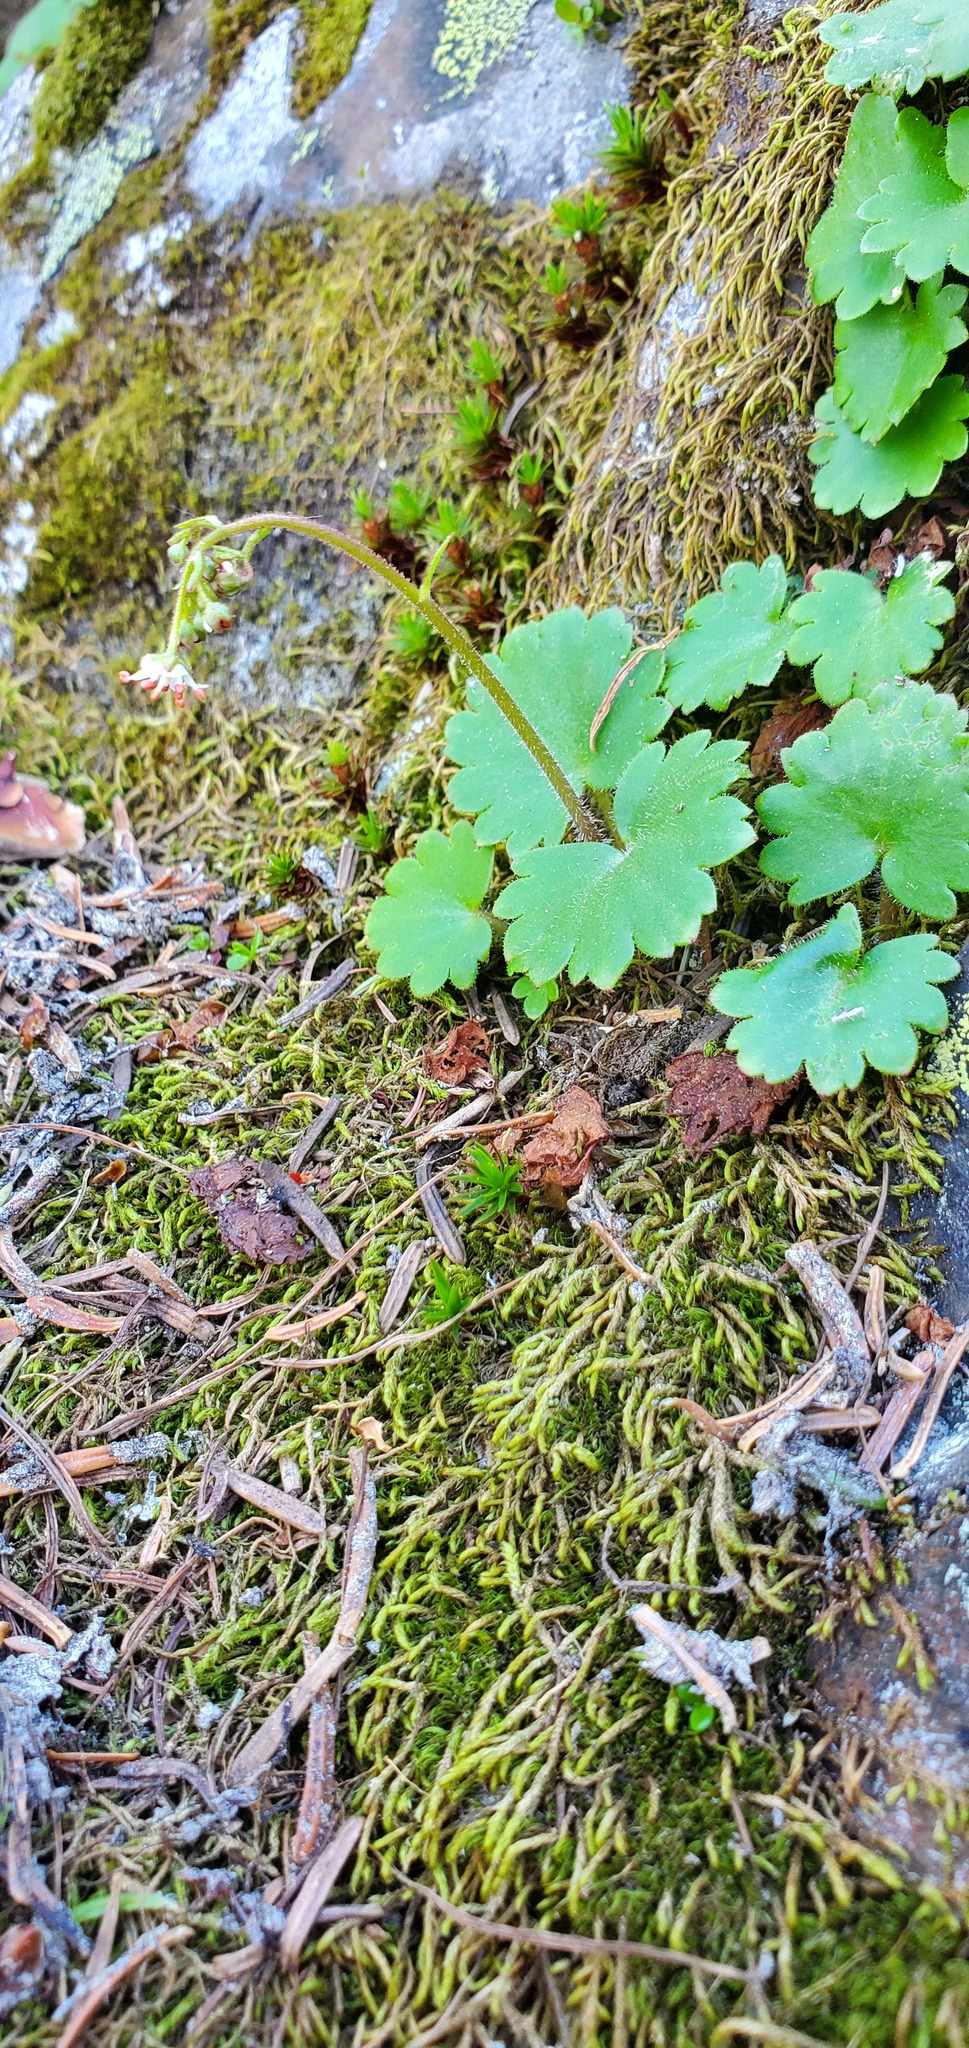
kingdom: Plantae
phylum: Tracheophyta
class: Magnoliopsida
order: Saxifragales
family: Saxifragaceae
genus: Micranthes
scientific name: Micranthes mertensiana
